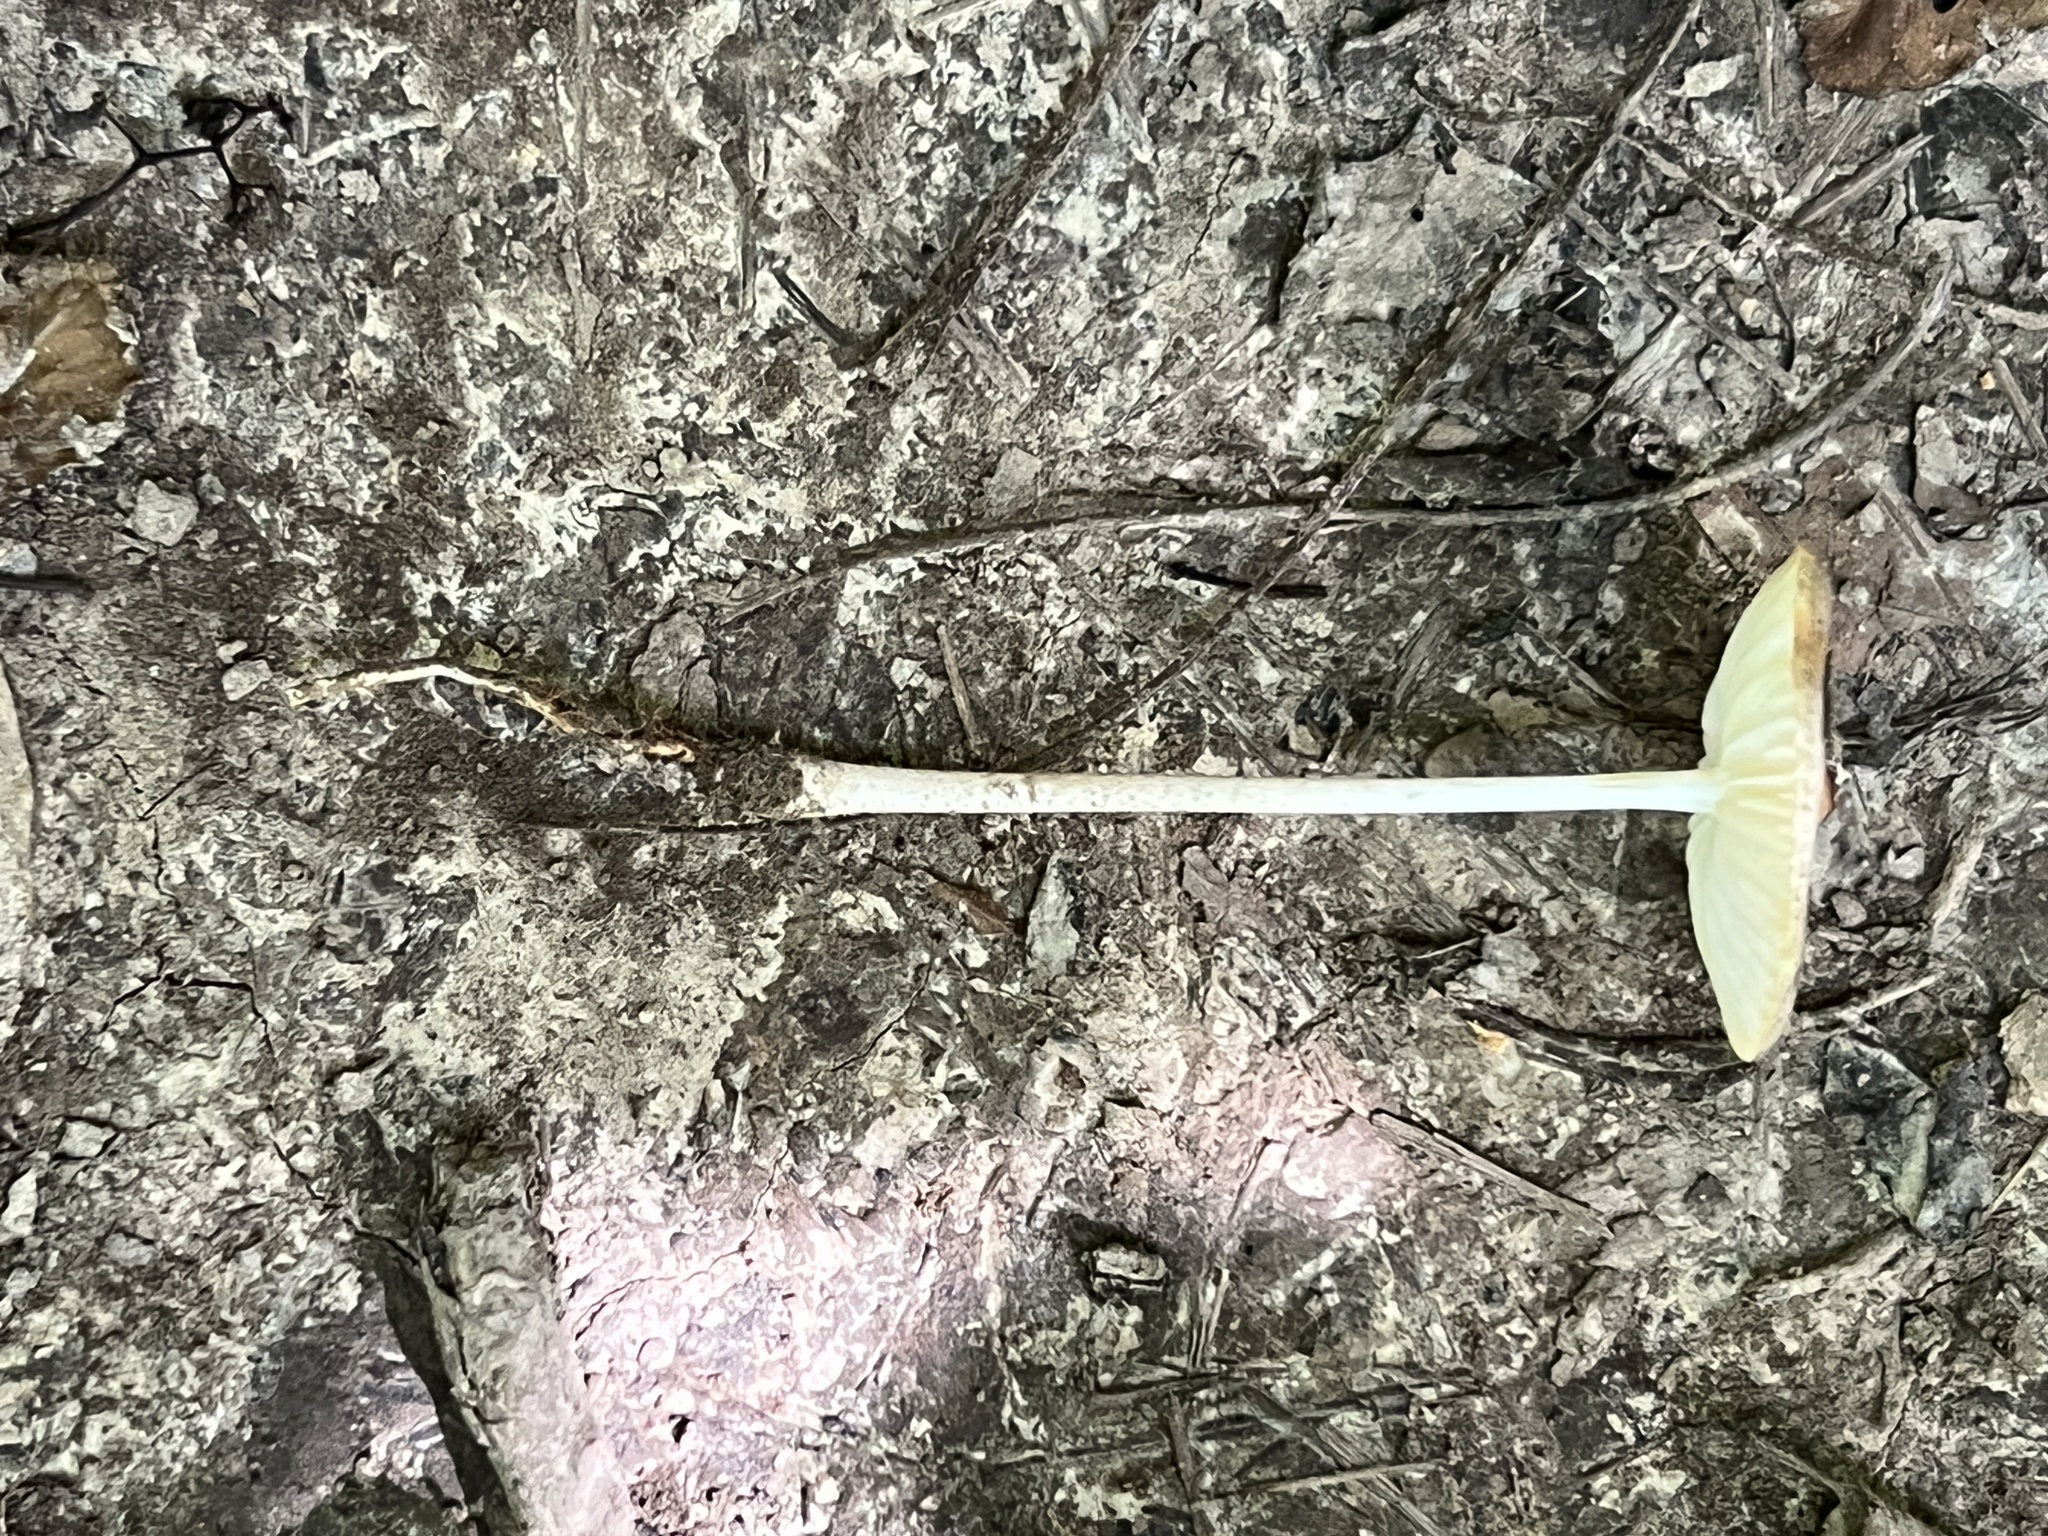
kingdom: Fungi
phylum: Basidiomycota
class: Agaricomycetes
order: Agaricales
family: Physalacriaceae
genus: Hymenopellis
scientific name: Hymenopellis limonispora
